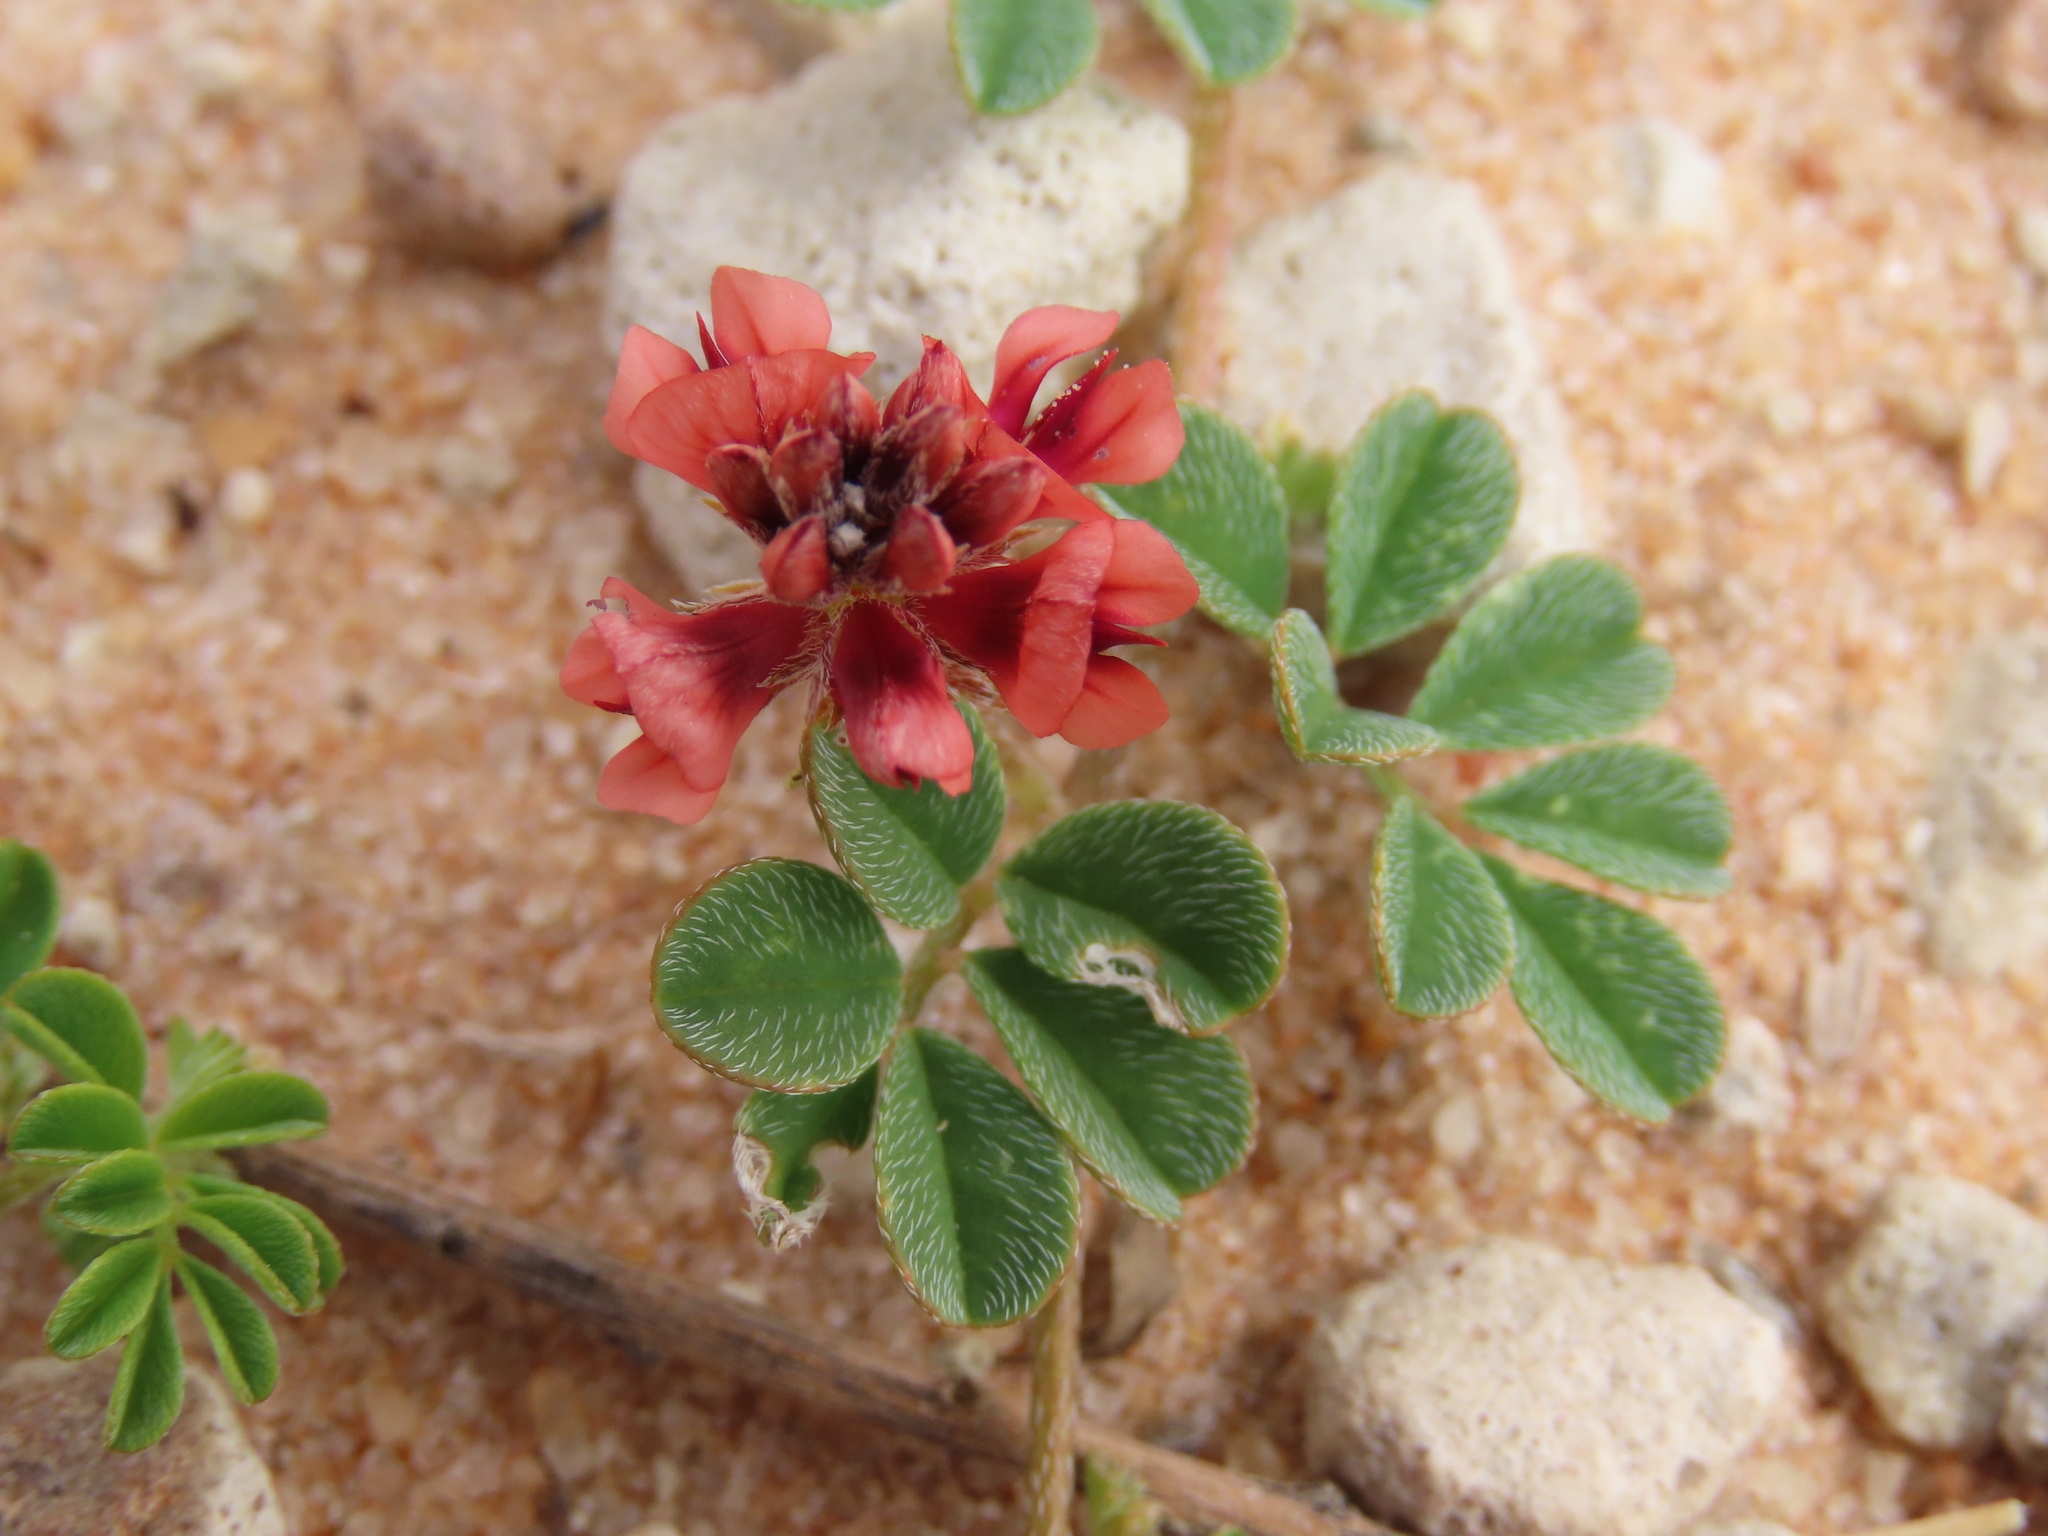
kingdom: Plantae
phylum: Tracheophyta
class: Magnoliopsida
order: Fabales
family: Fabaceae
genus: Indigofera
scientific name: Indigofera alternans
